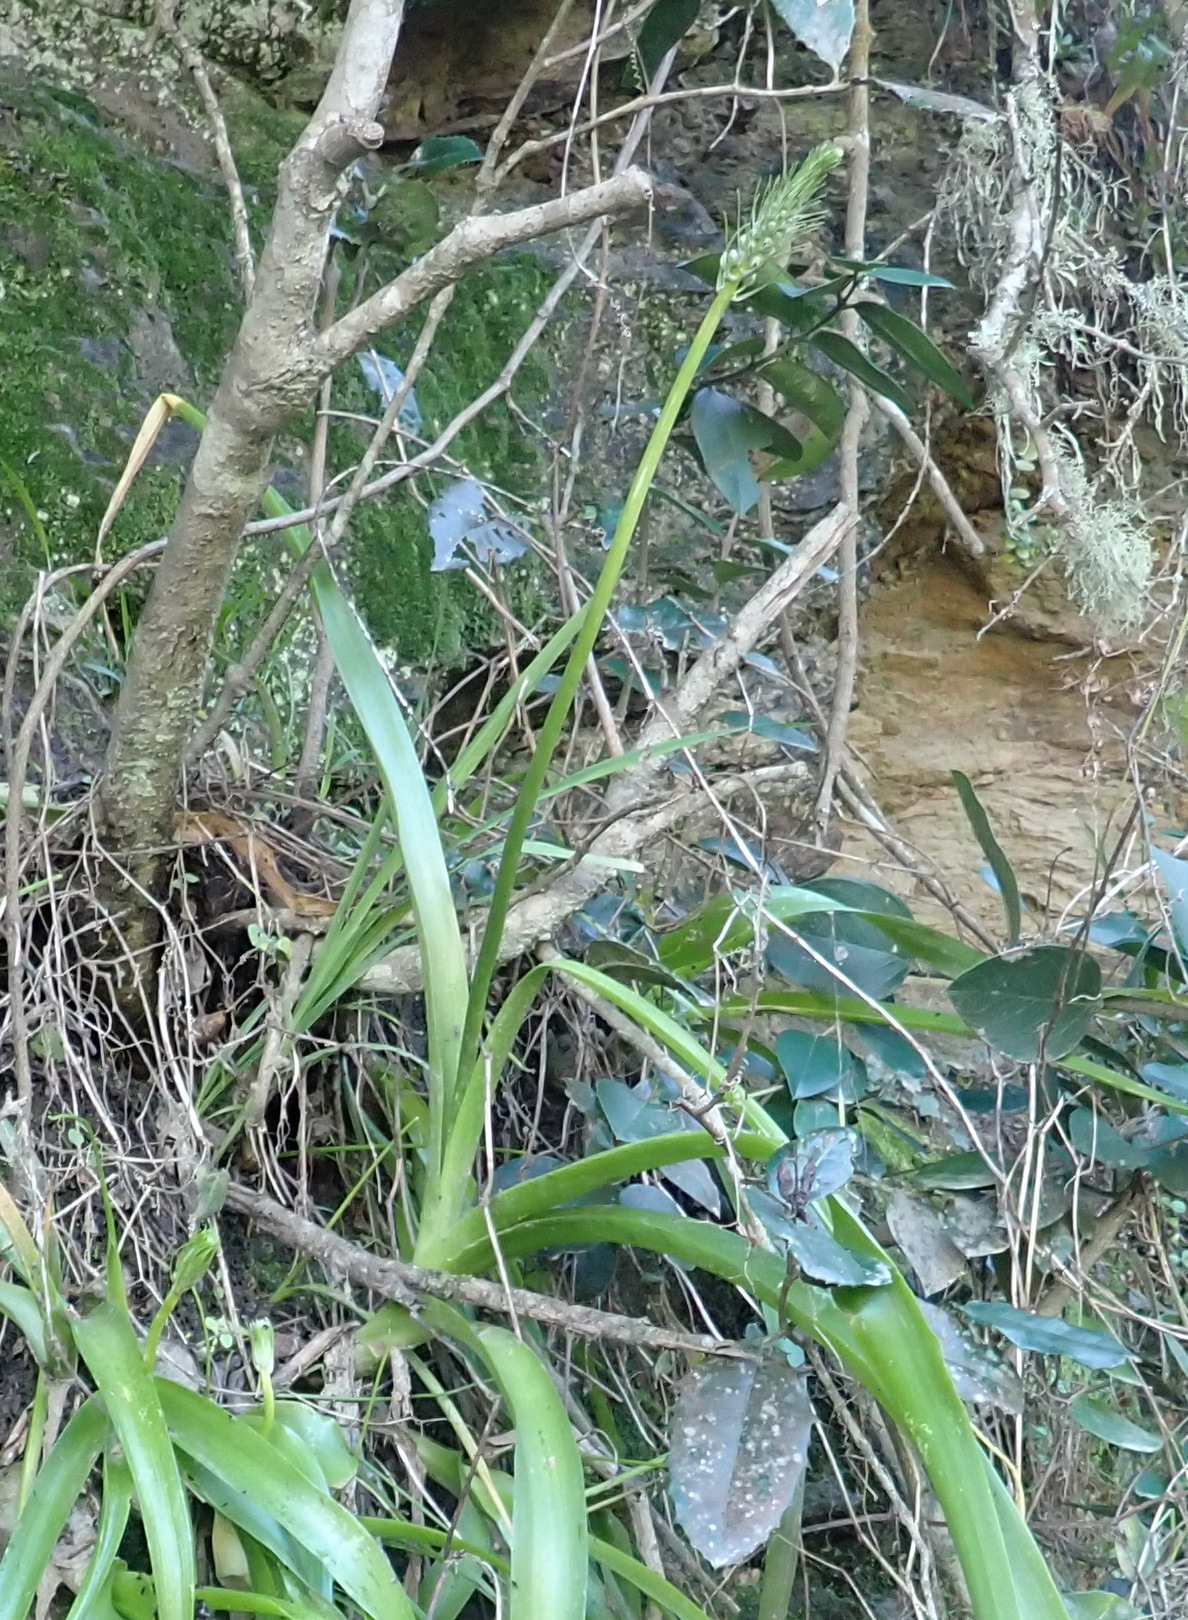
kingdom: Plantae
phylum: Tracheophyta
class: Liliopsida
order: Asparagales
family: Asparagaceae
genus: Albuca
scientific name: Albuca bracteata
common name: Sea-onion
